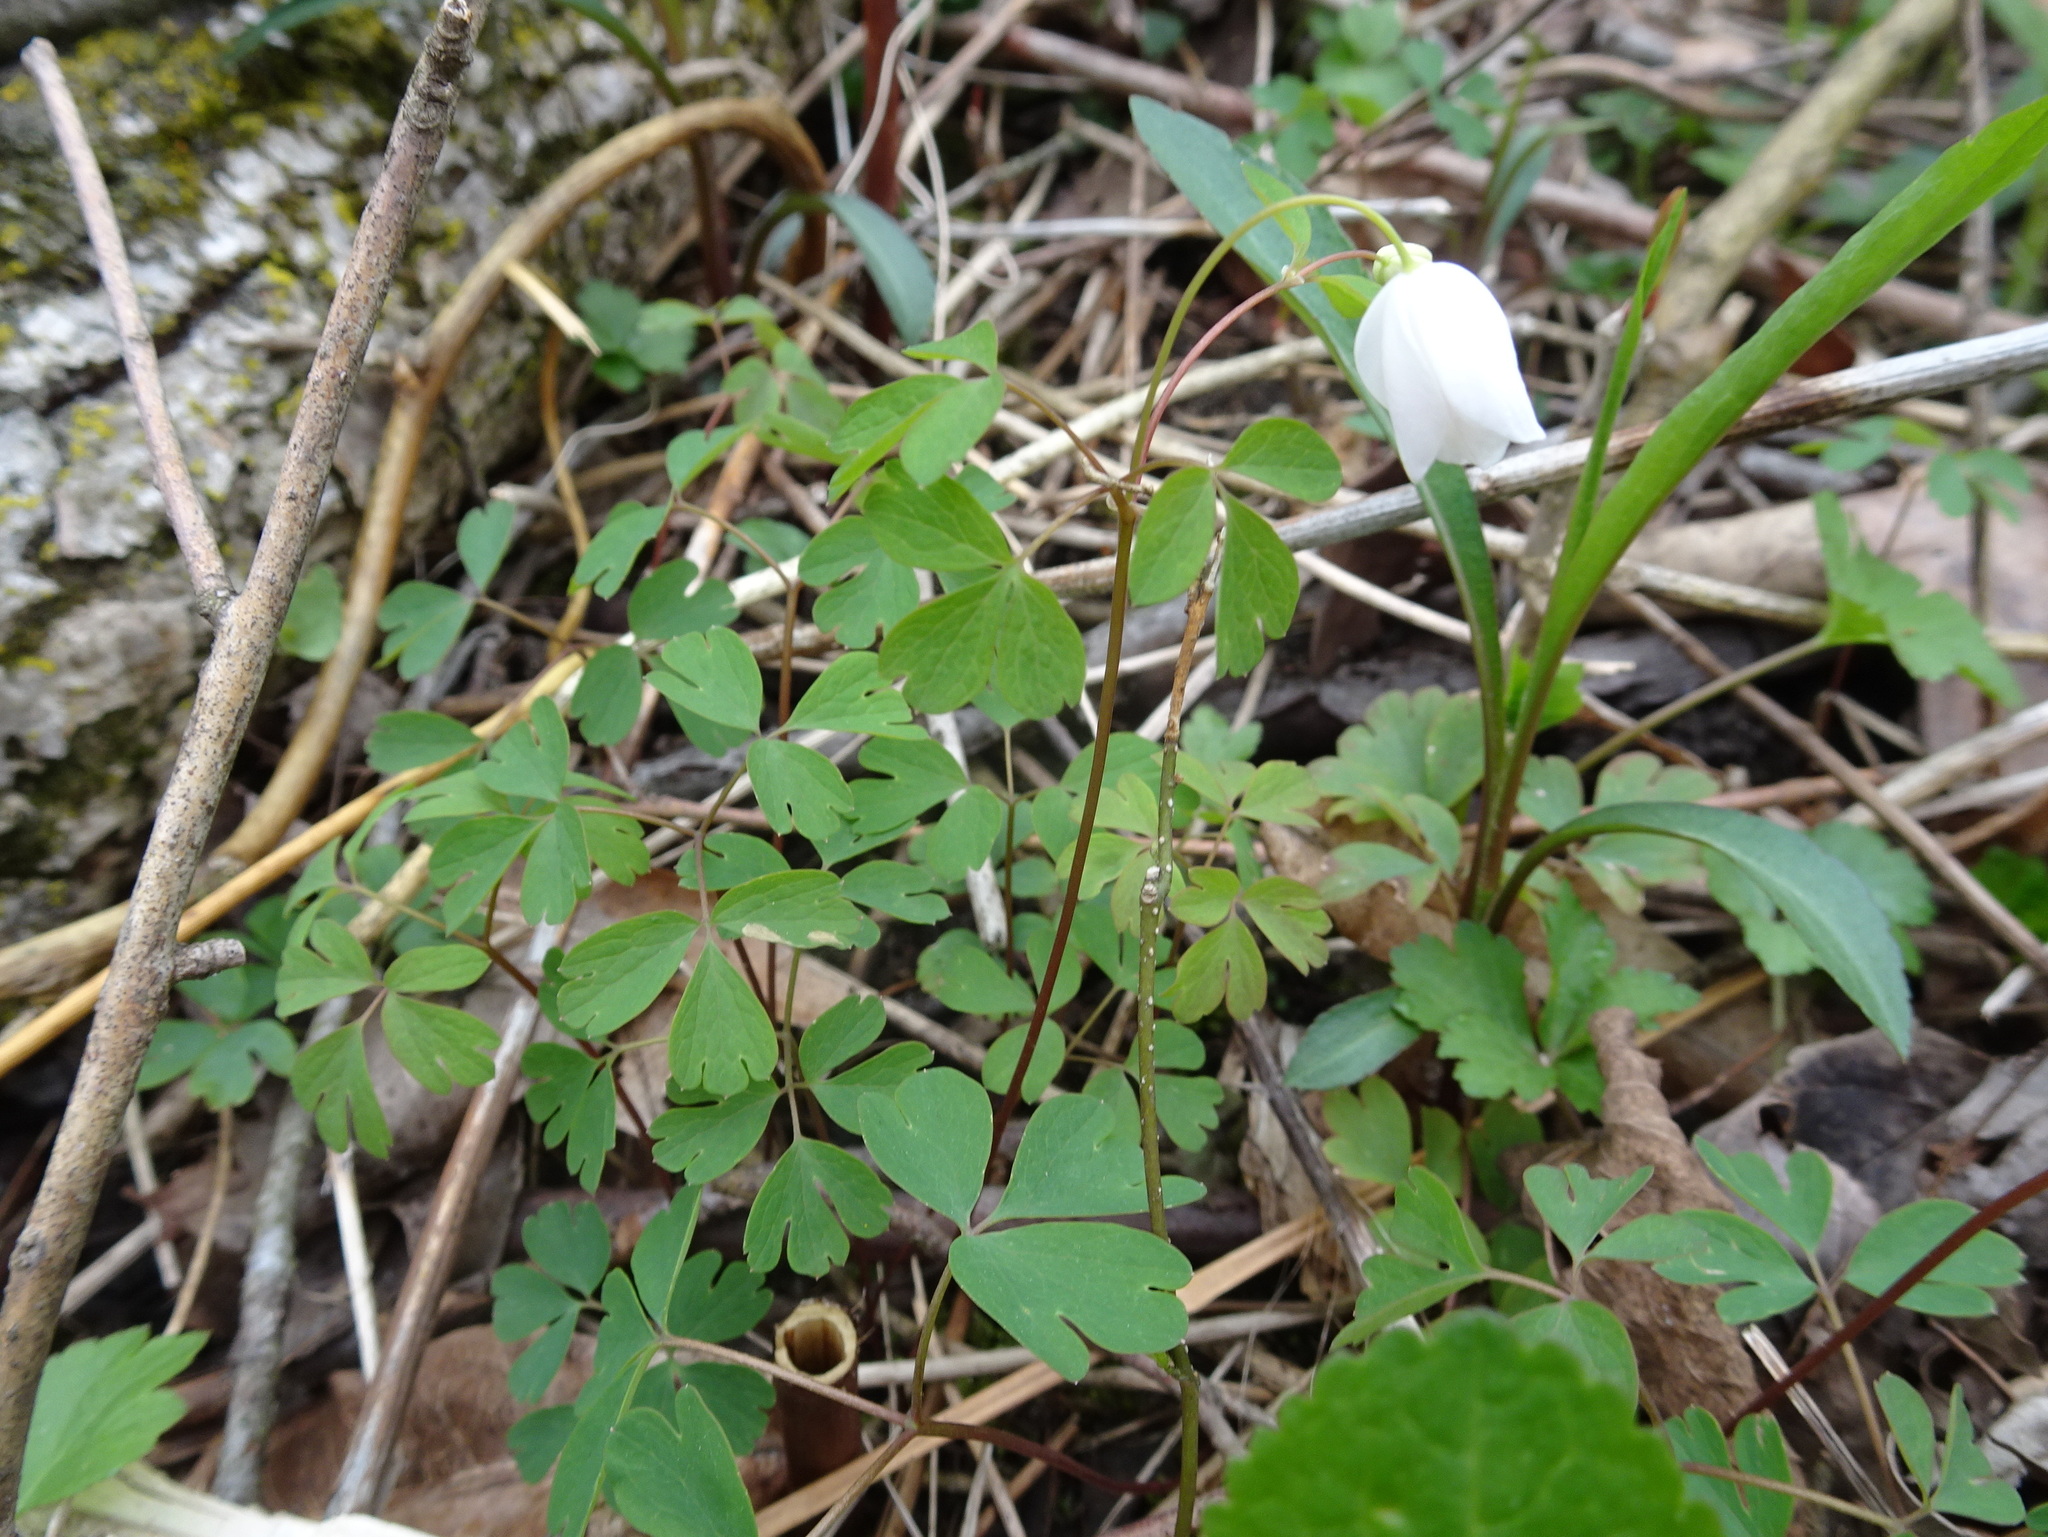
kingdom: Plantae
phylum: Tracheophyta
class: Magnoliopsida
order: Ranunculales
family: Ranunculaceae
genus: Enemion
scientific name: Enemion biternatum
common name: Eastern false rue-anemone
